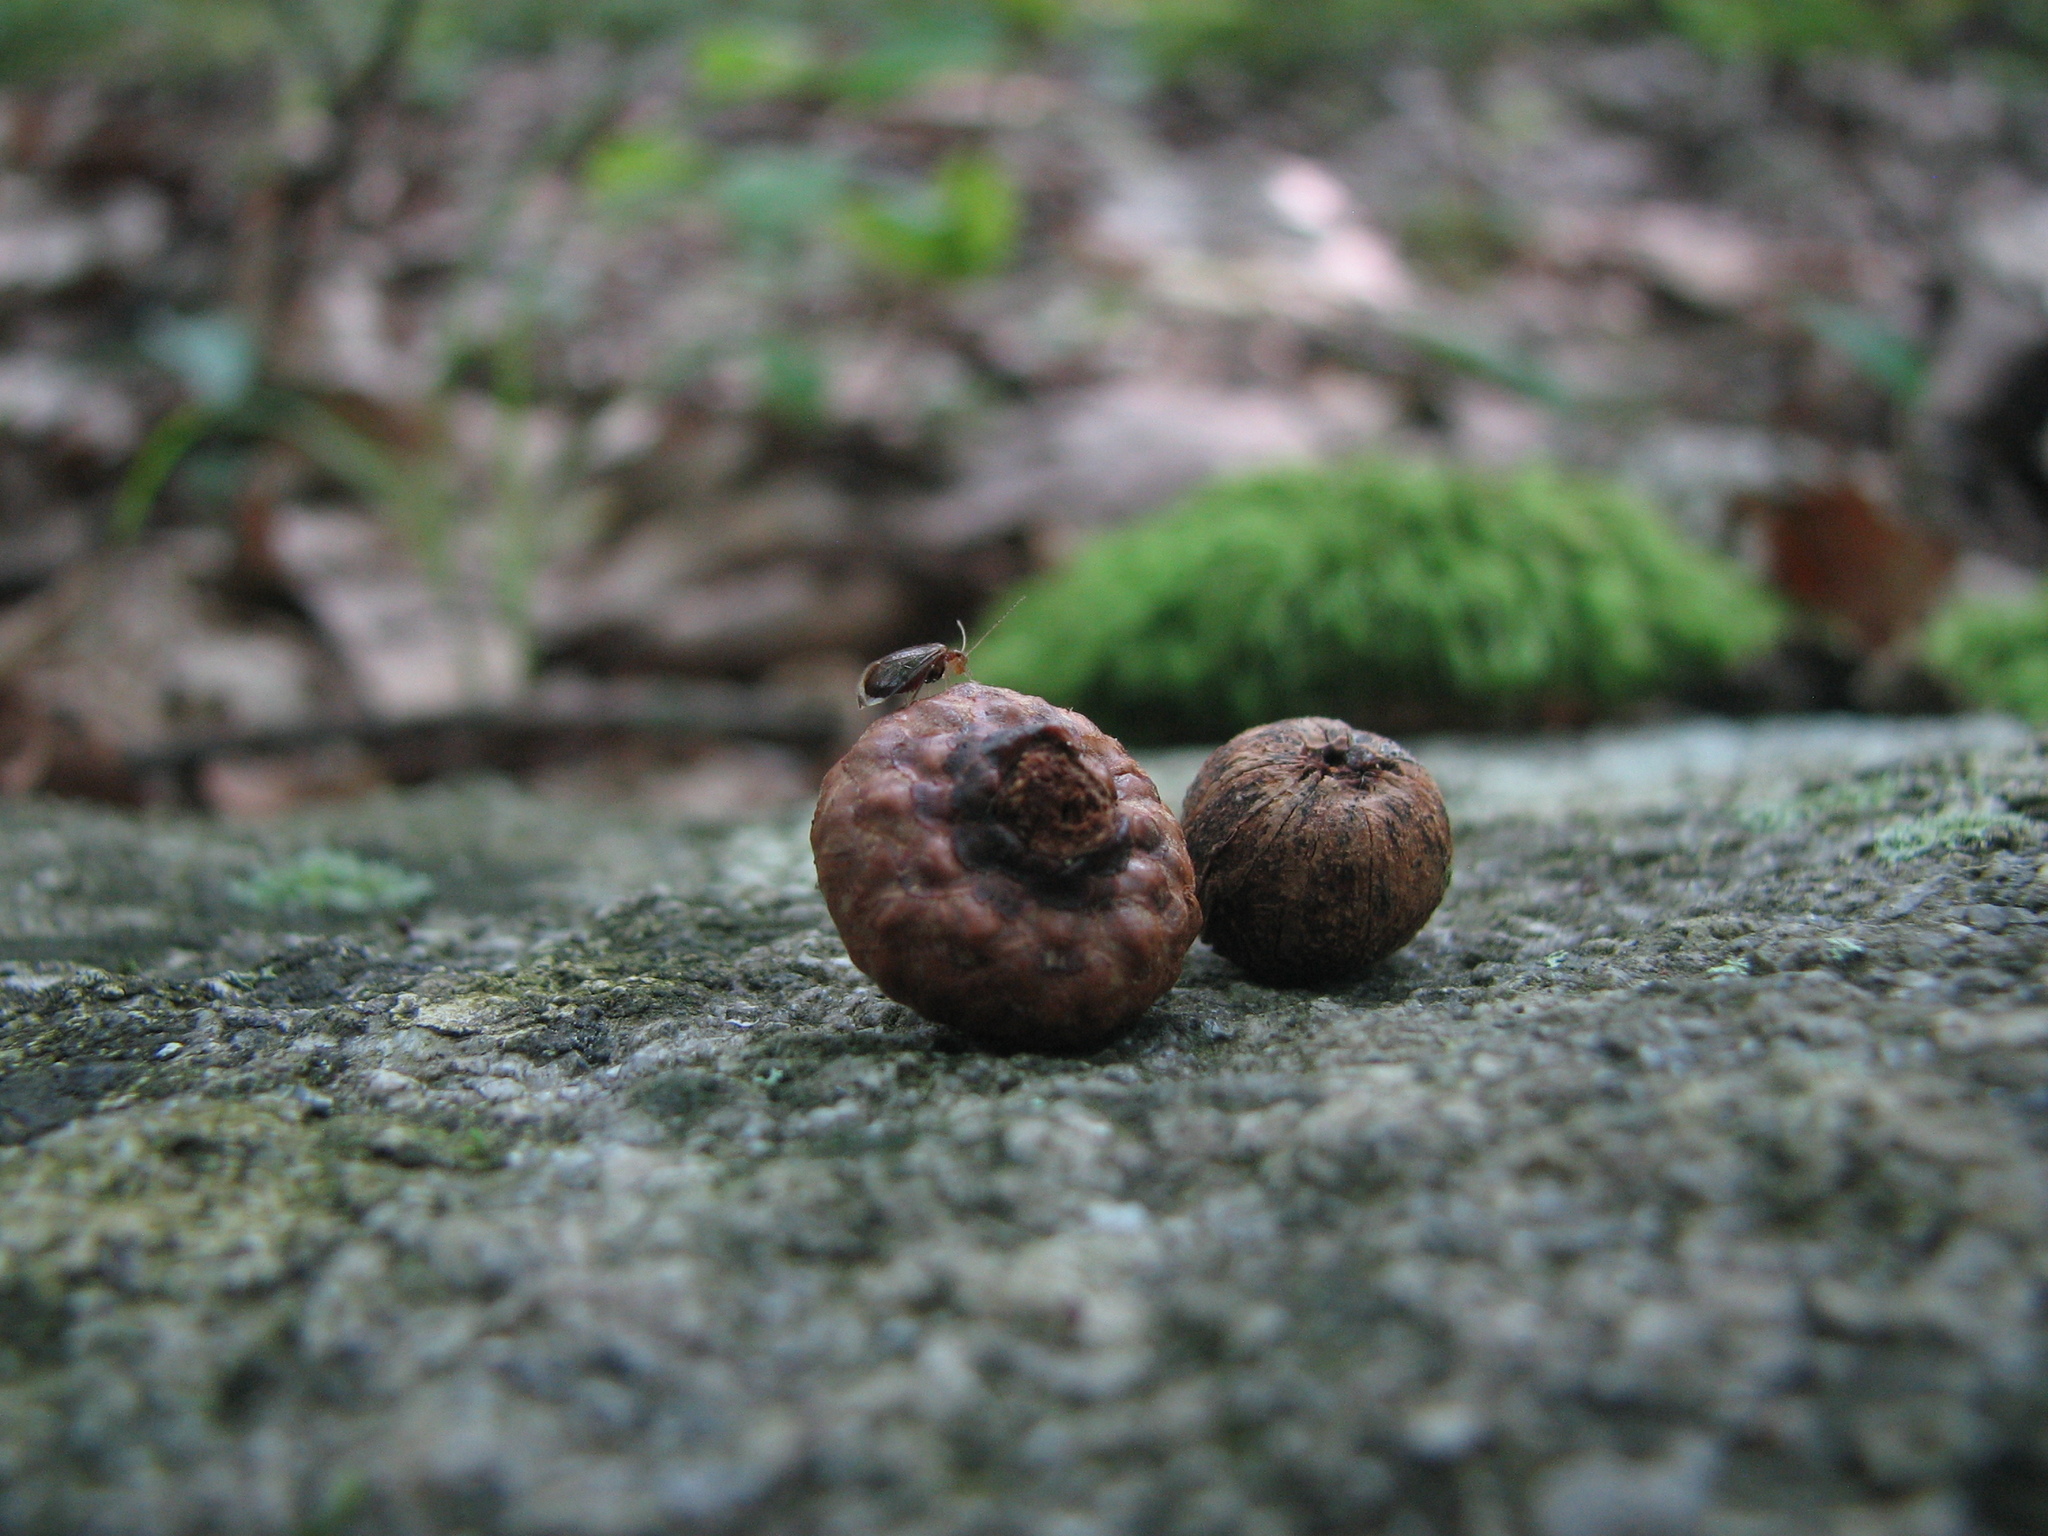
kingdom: Animalia
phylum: Arthropoda
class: Insecta
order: Psocodea
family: Amphipsocidae
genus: Polypsocus
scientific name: Polypsocus corruptus
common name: Corrupt barklouse
